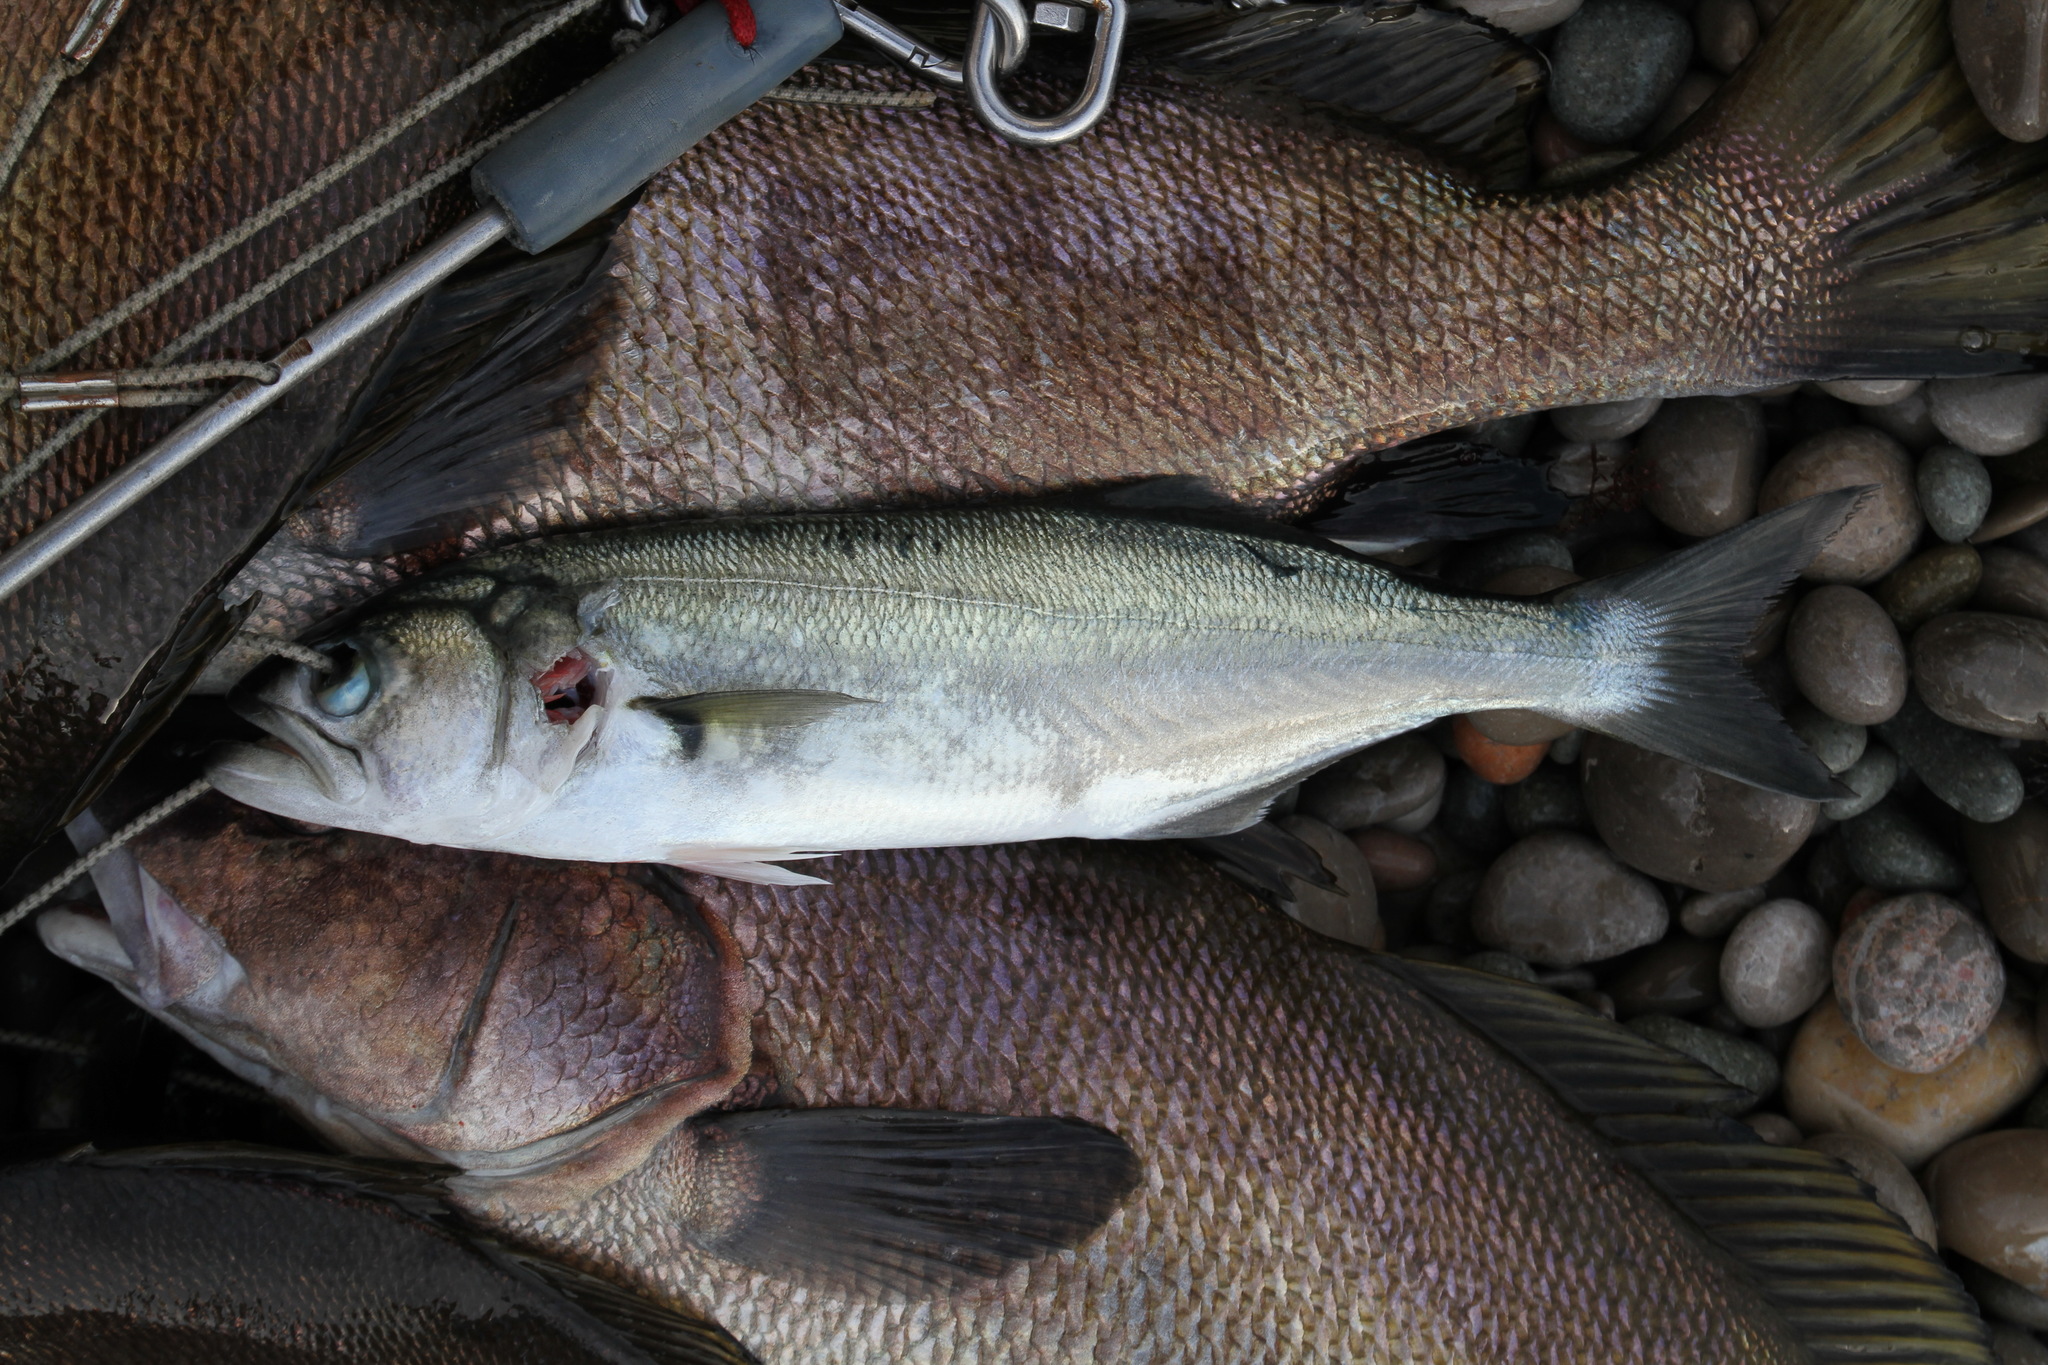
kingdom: Animalia
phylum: Chordata
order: Perciformes
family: Pomatomidae
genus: Pomatomus
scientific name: Pomatomus saltatrix
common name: Bluefish
